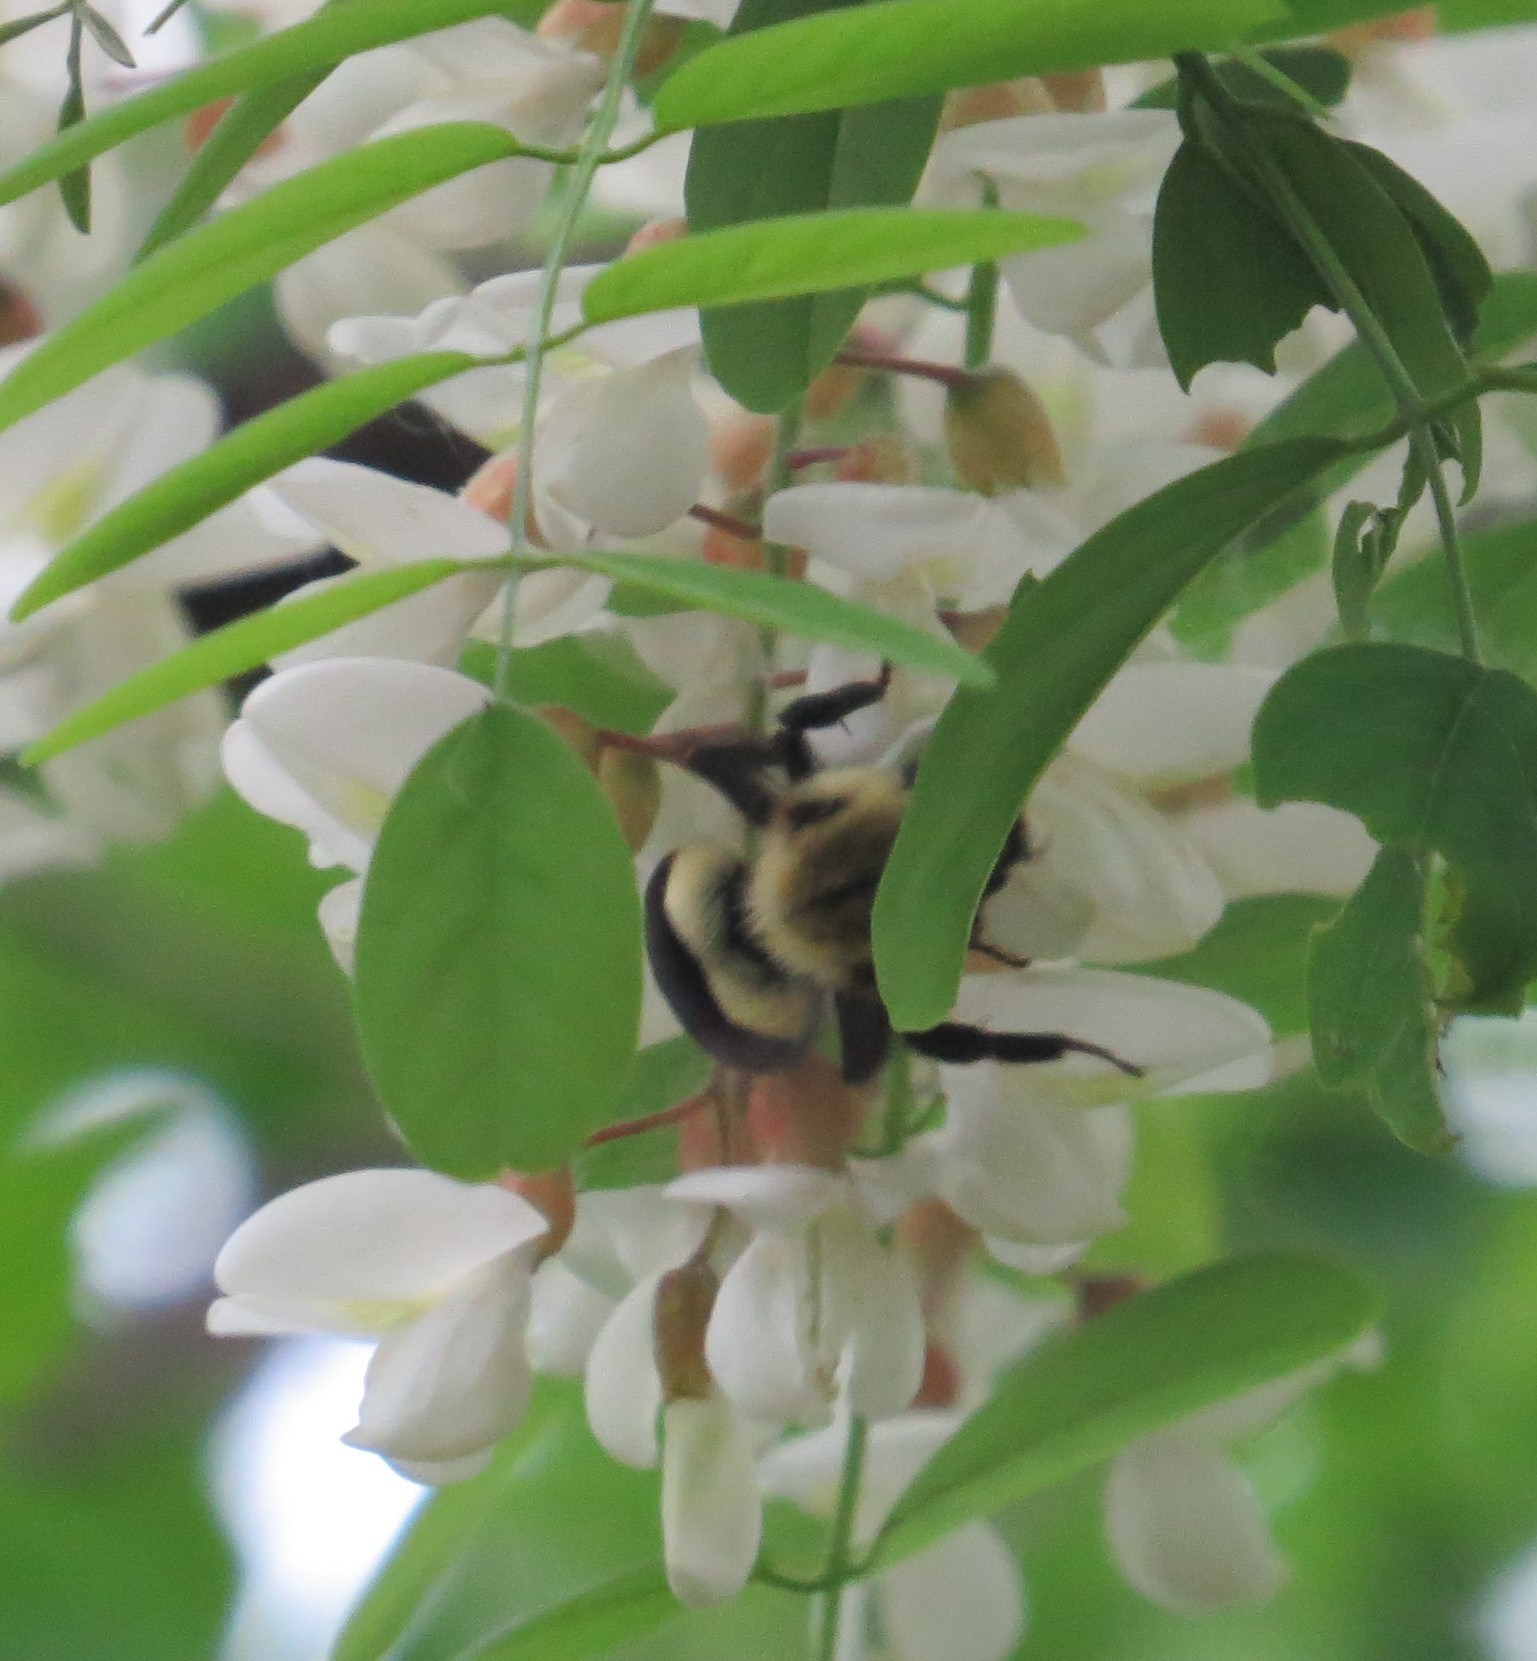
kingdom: Animalia
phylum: Arthropoda
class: Insecta
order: Hymenoptera
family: Apidae
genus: Bombus
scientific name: Bombus impatiens
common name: Common eastern bumble bee
